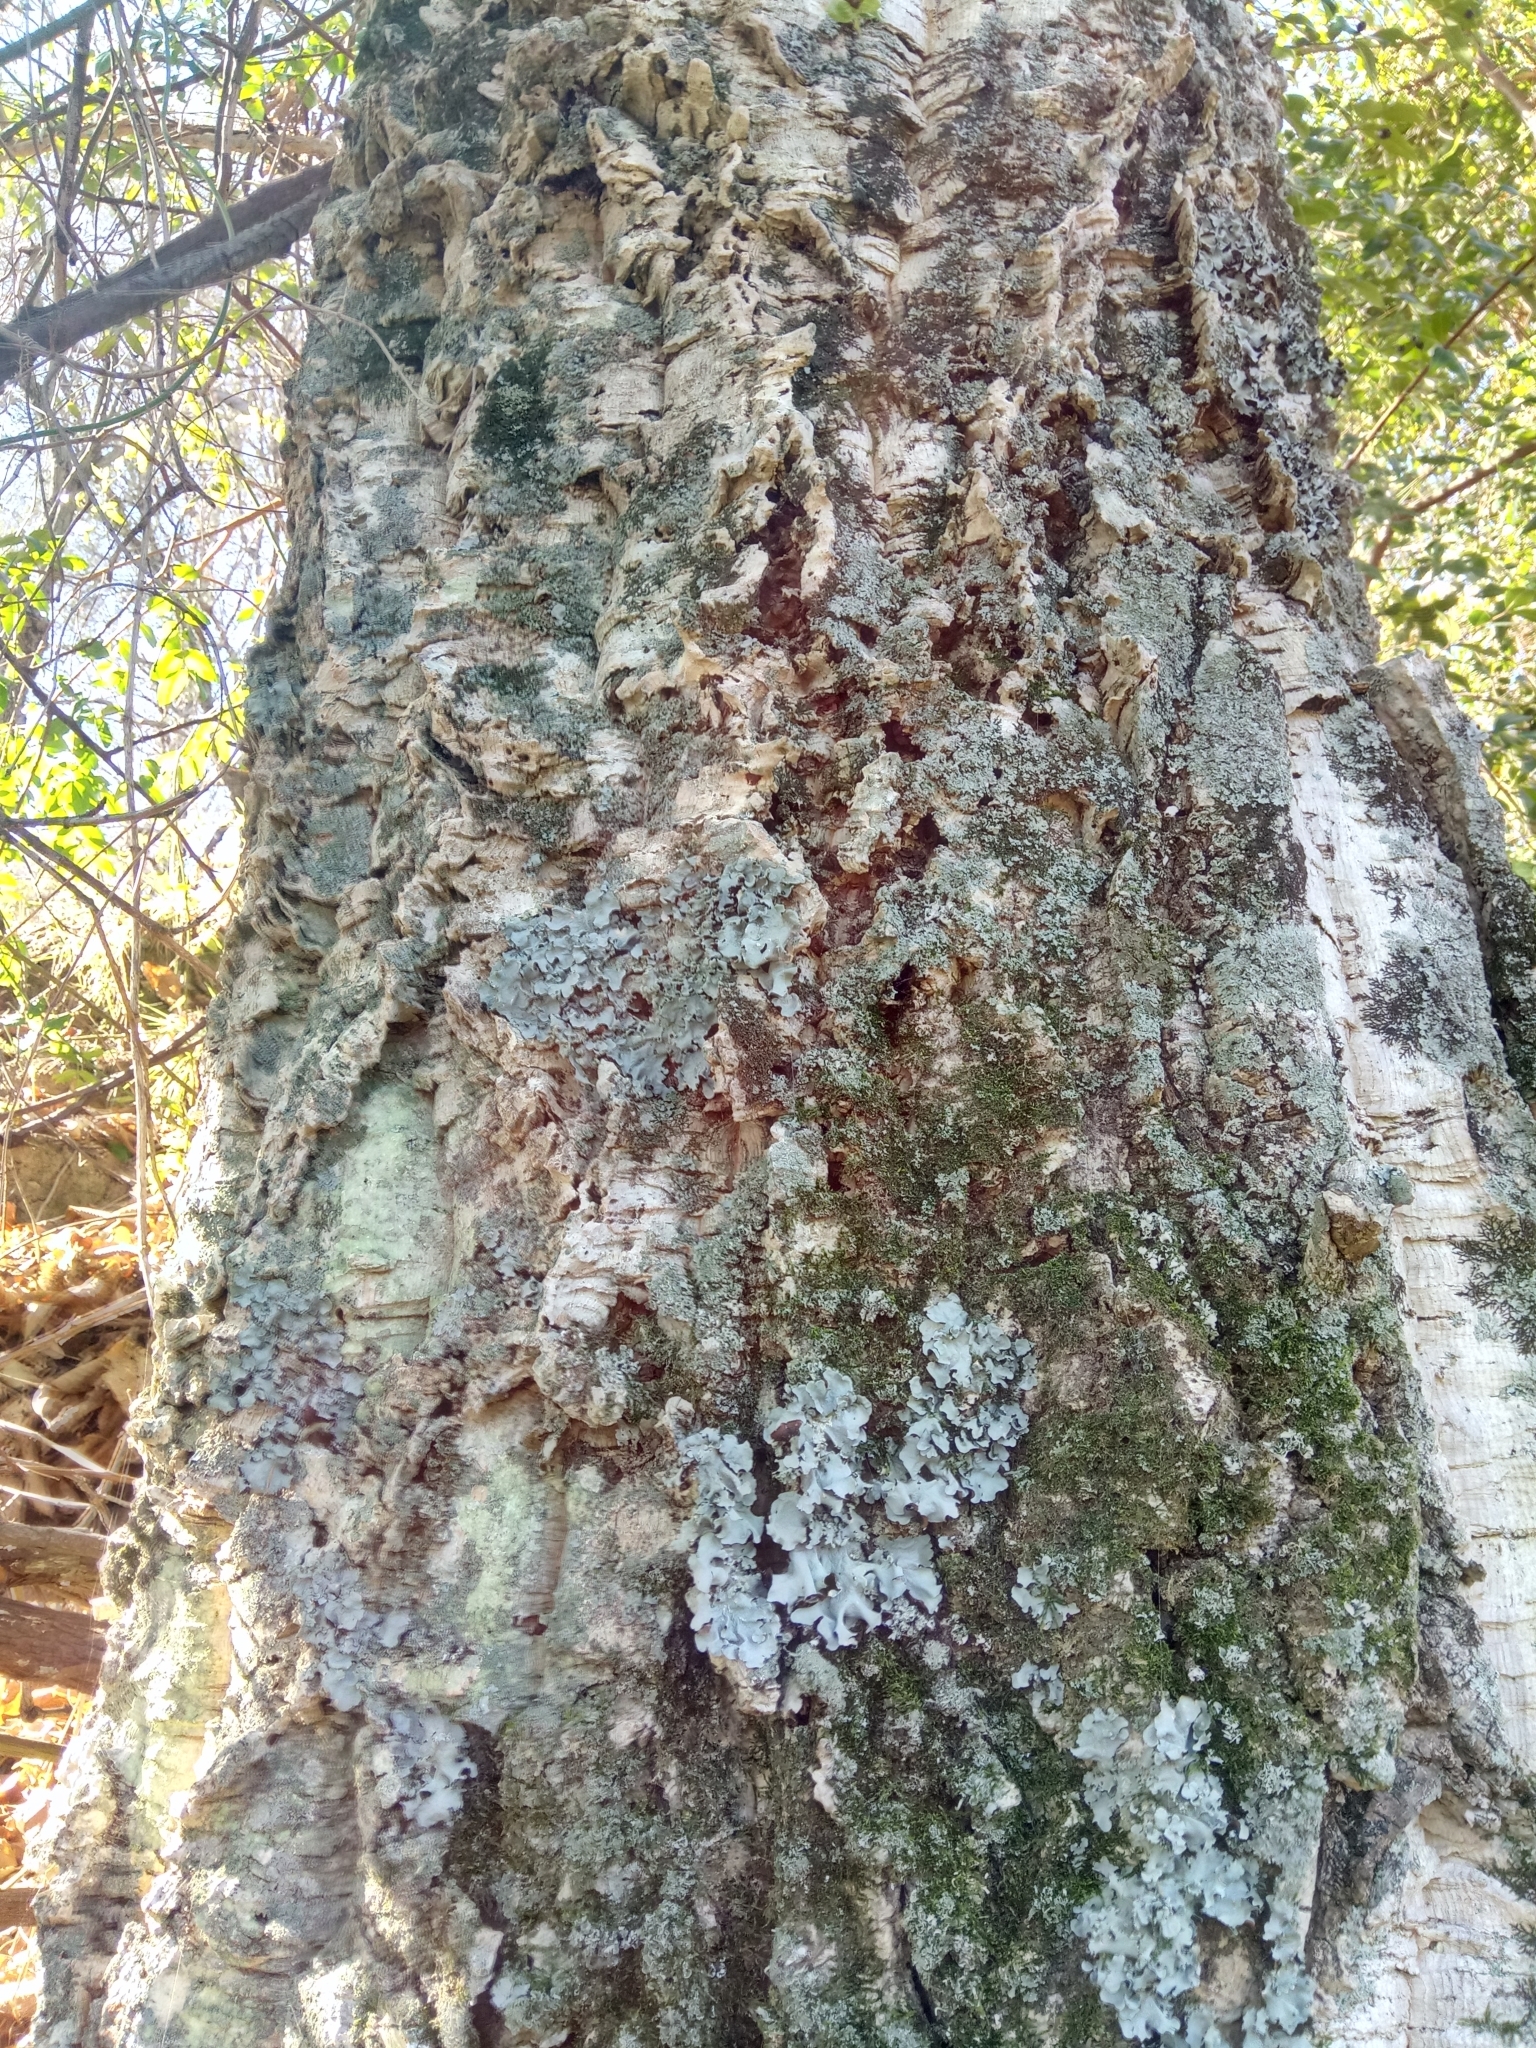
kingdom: Plantae
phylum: Tracheophyta
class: Magnoliopsida
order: Fagales
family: Fagaceae
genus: Quercus
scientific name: Quercus suber
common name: Cork oak
